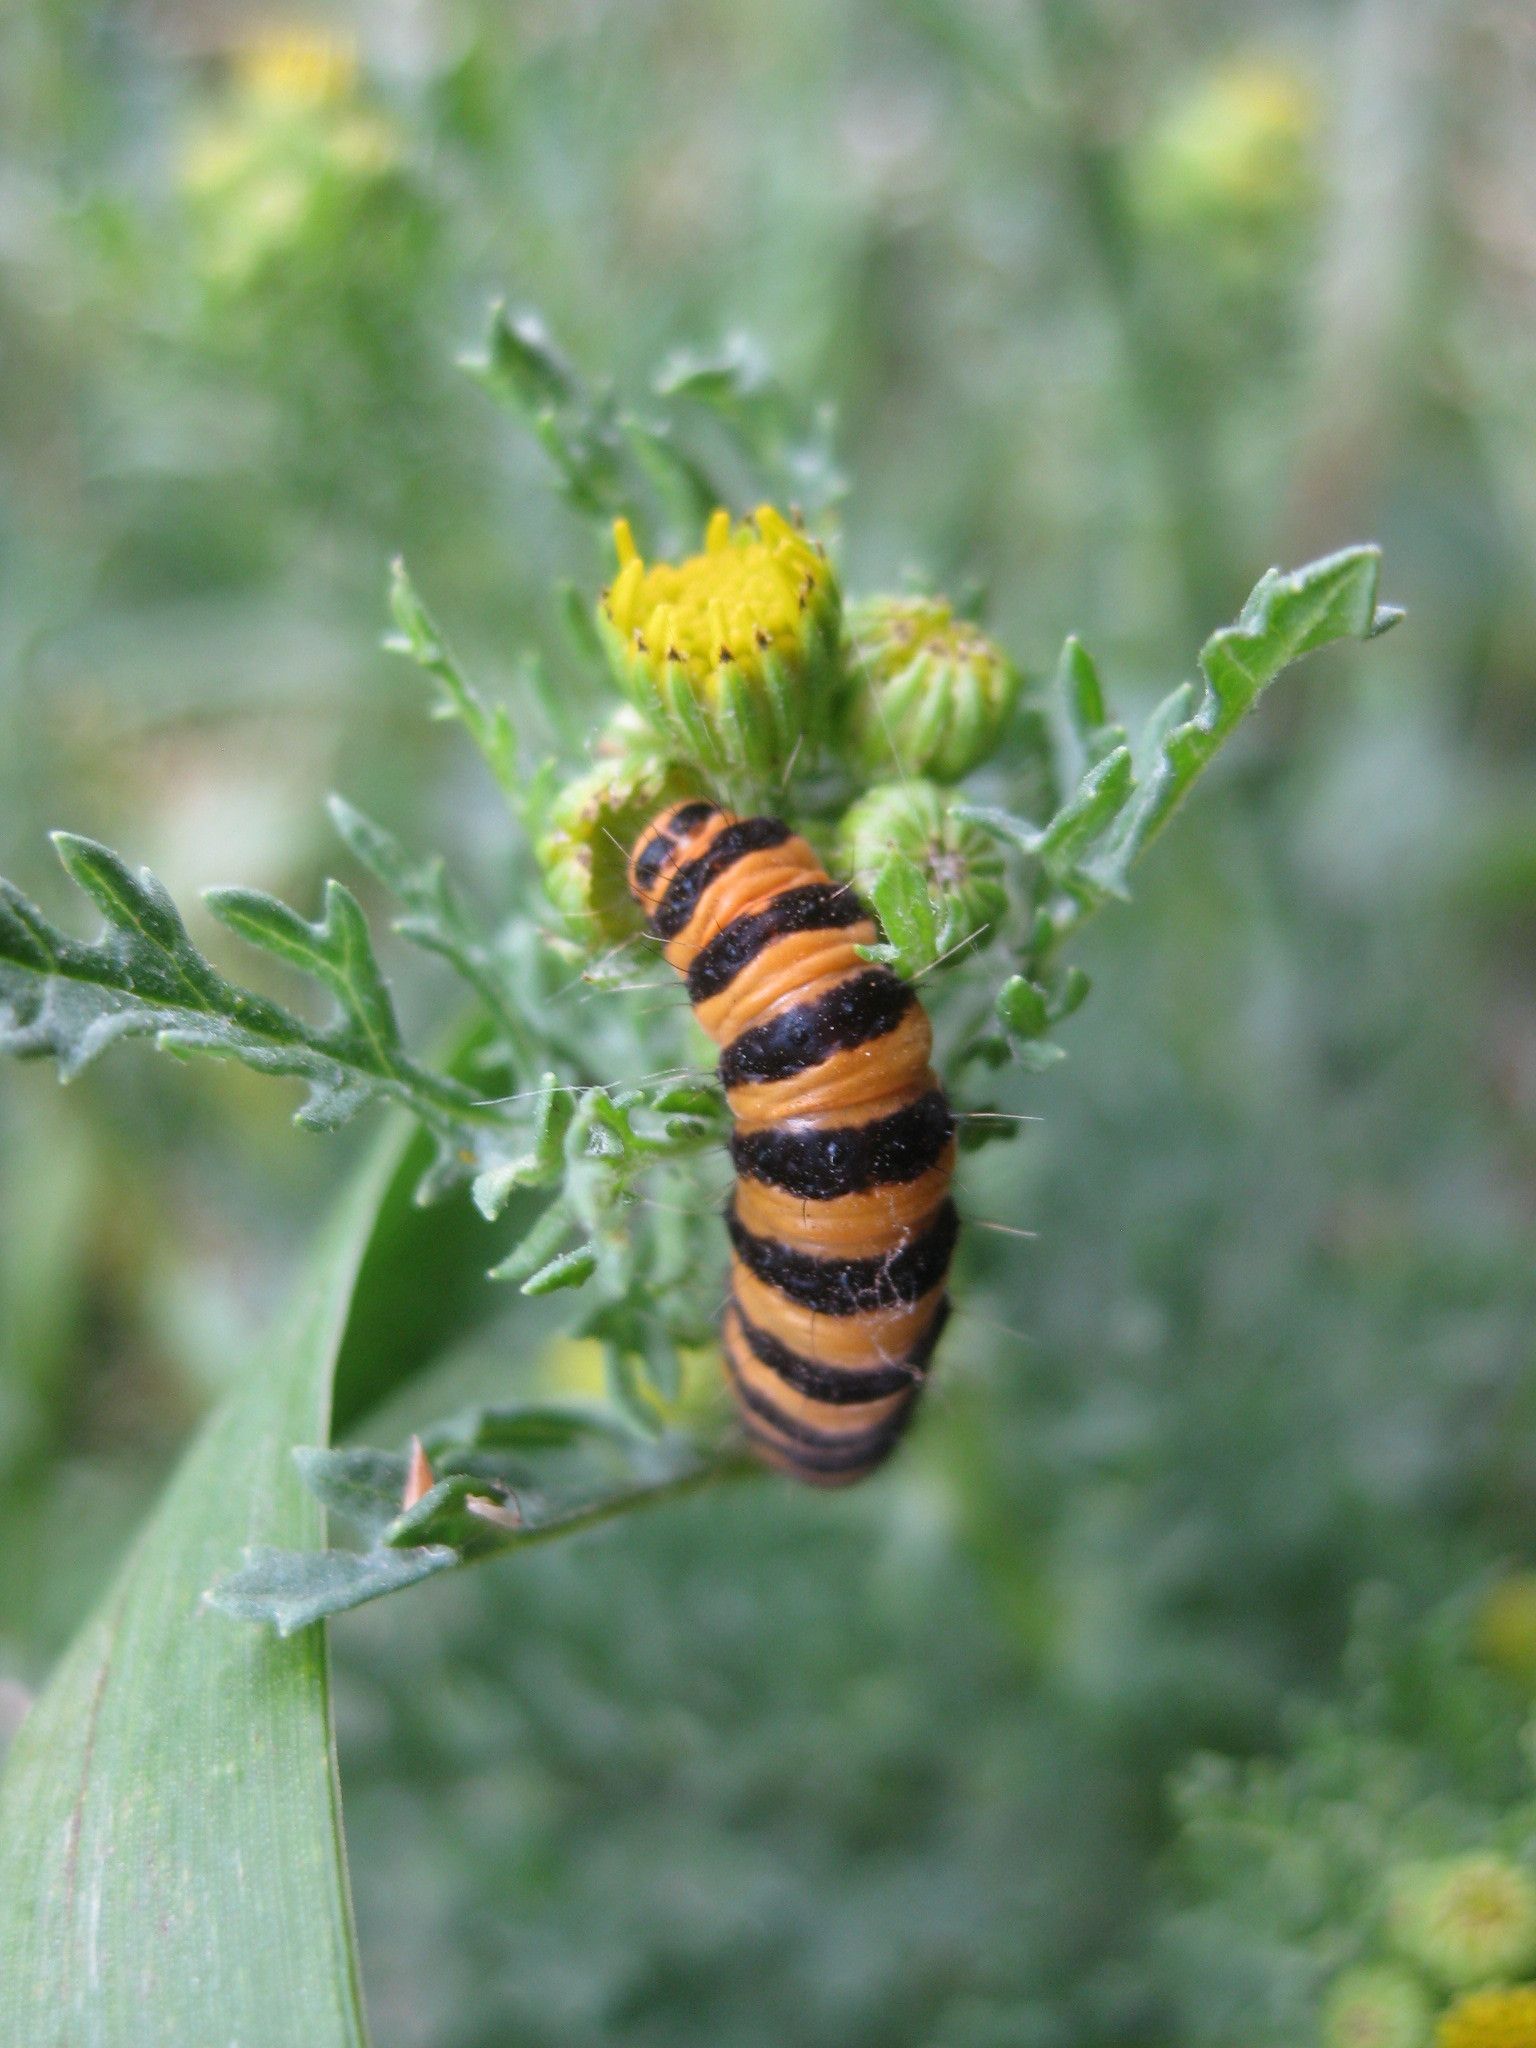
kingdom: Animalia
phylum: Arthropoda
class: Insecta
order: Lepidoptera
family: Erebidae
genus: Tyria
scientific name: Tyria jacobaeae
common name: Cinnabar
